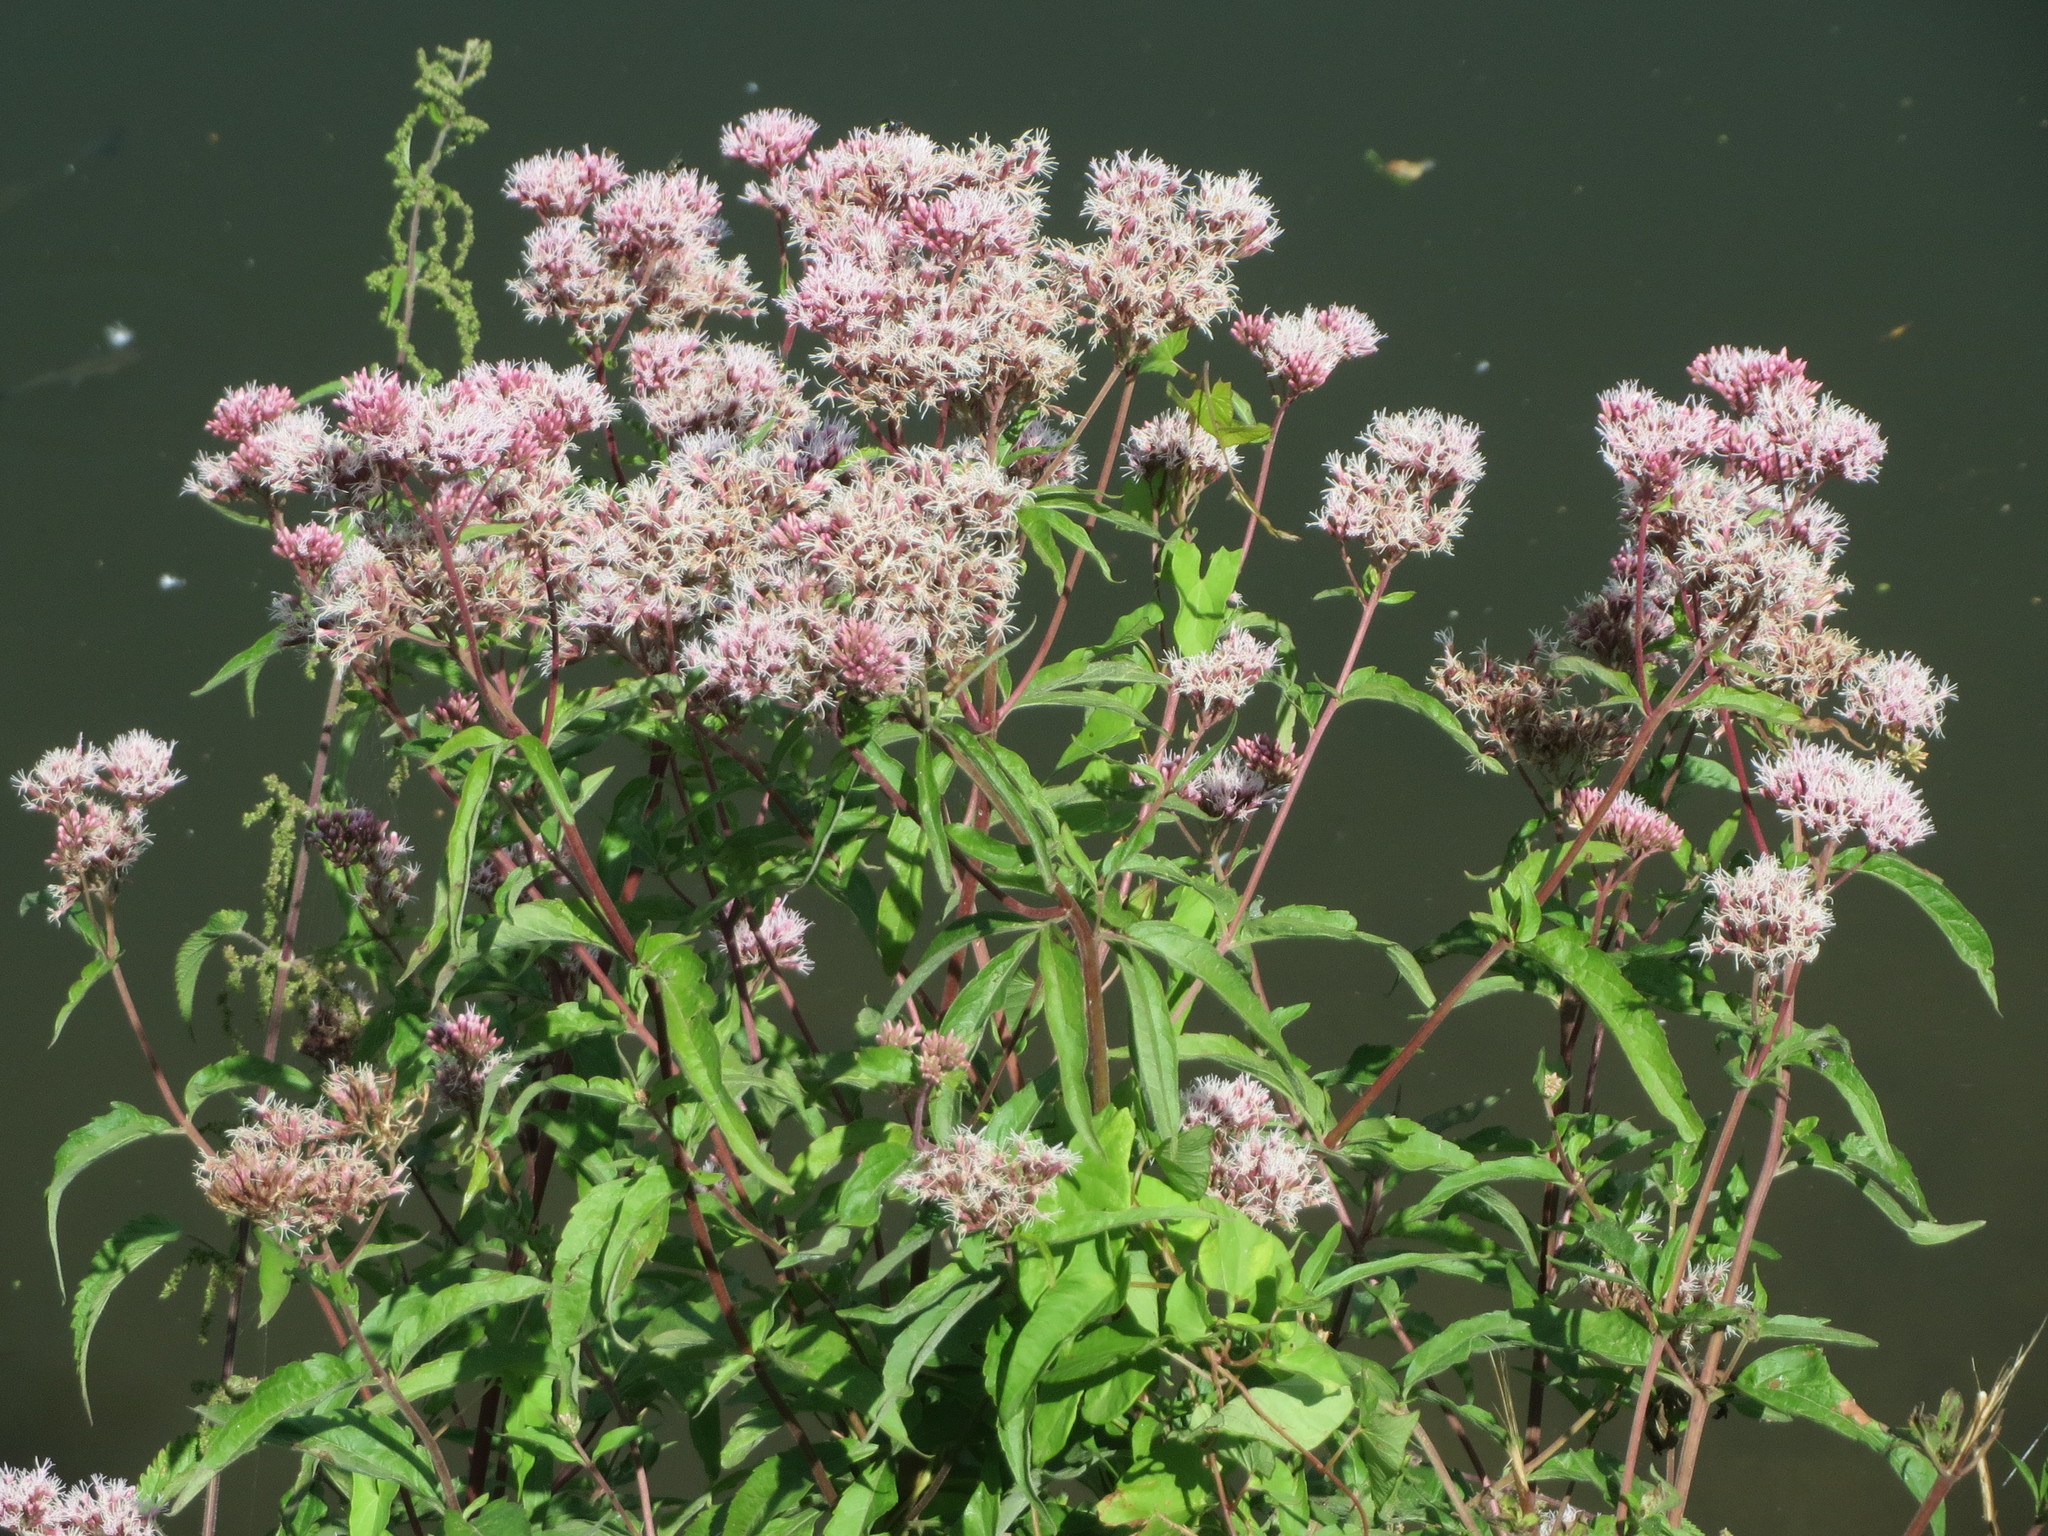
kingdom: Plantae
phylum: Tracheophyta
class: Magnoliopsida
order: Asterales
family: Asteraceae
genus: Eupatorium
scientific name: Eupatorium cannabinum
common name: Hemp-agrimony
